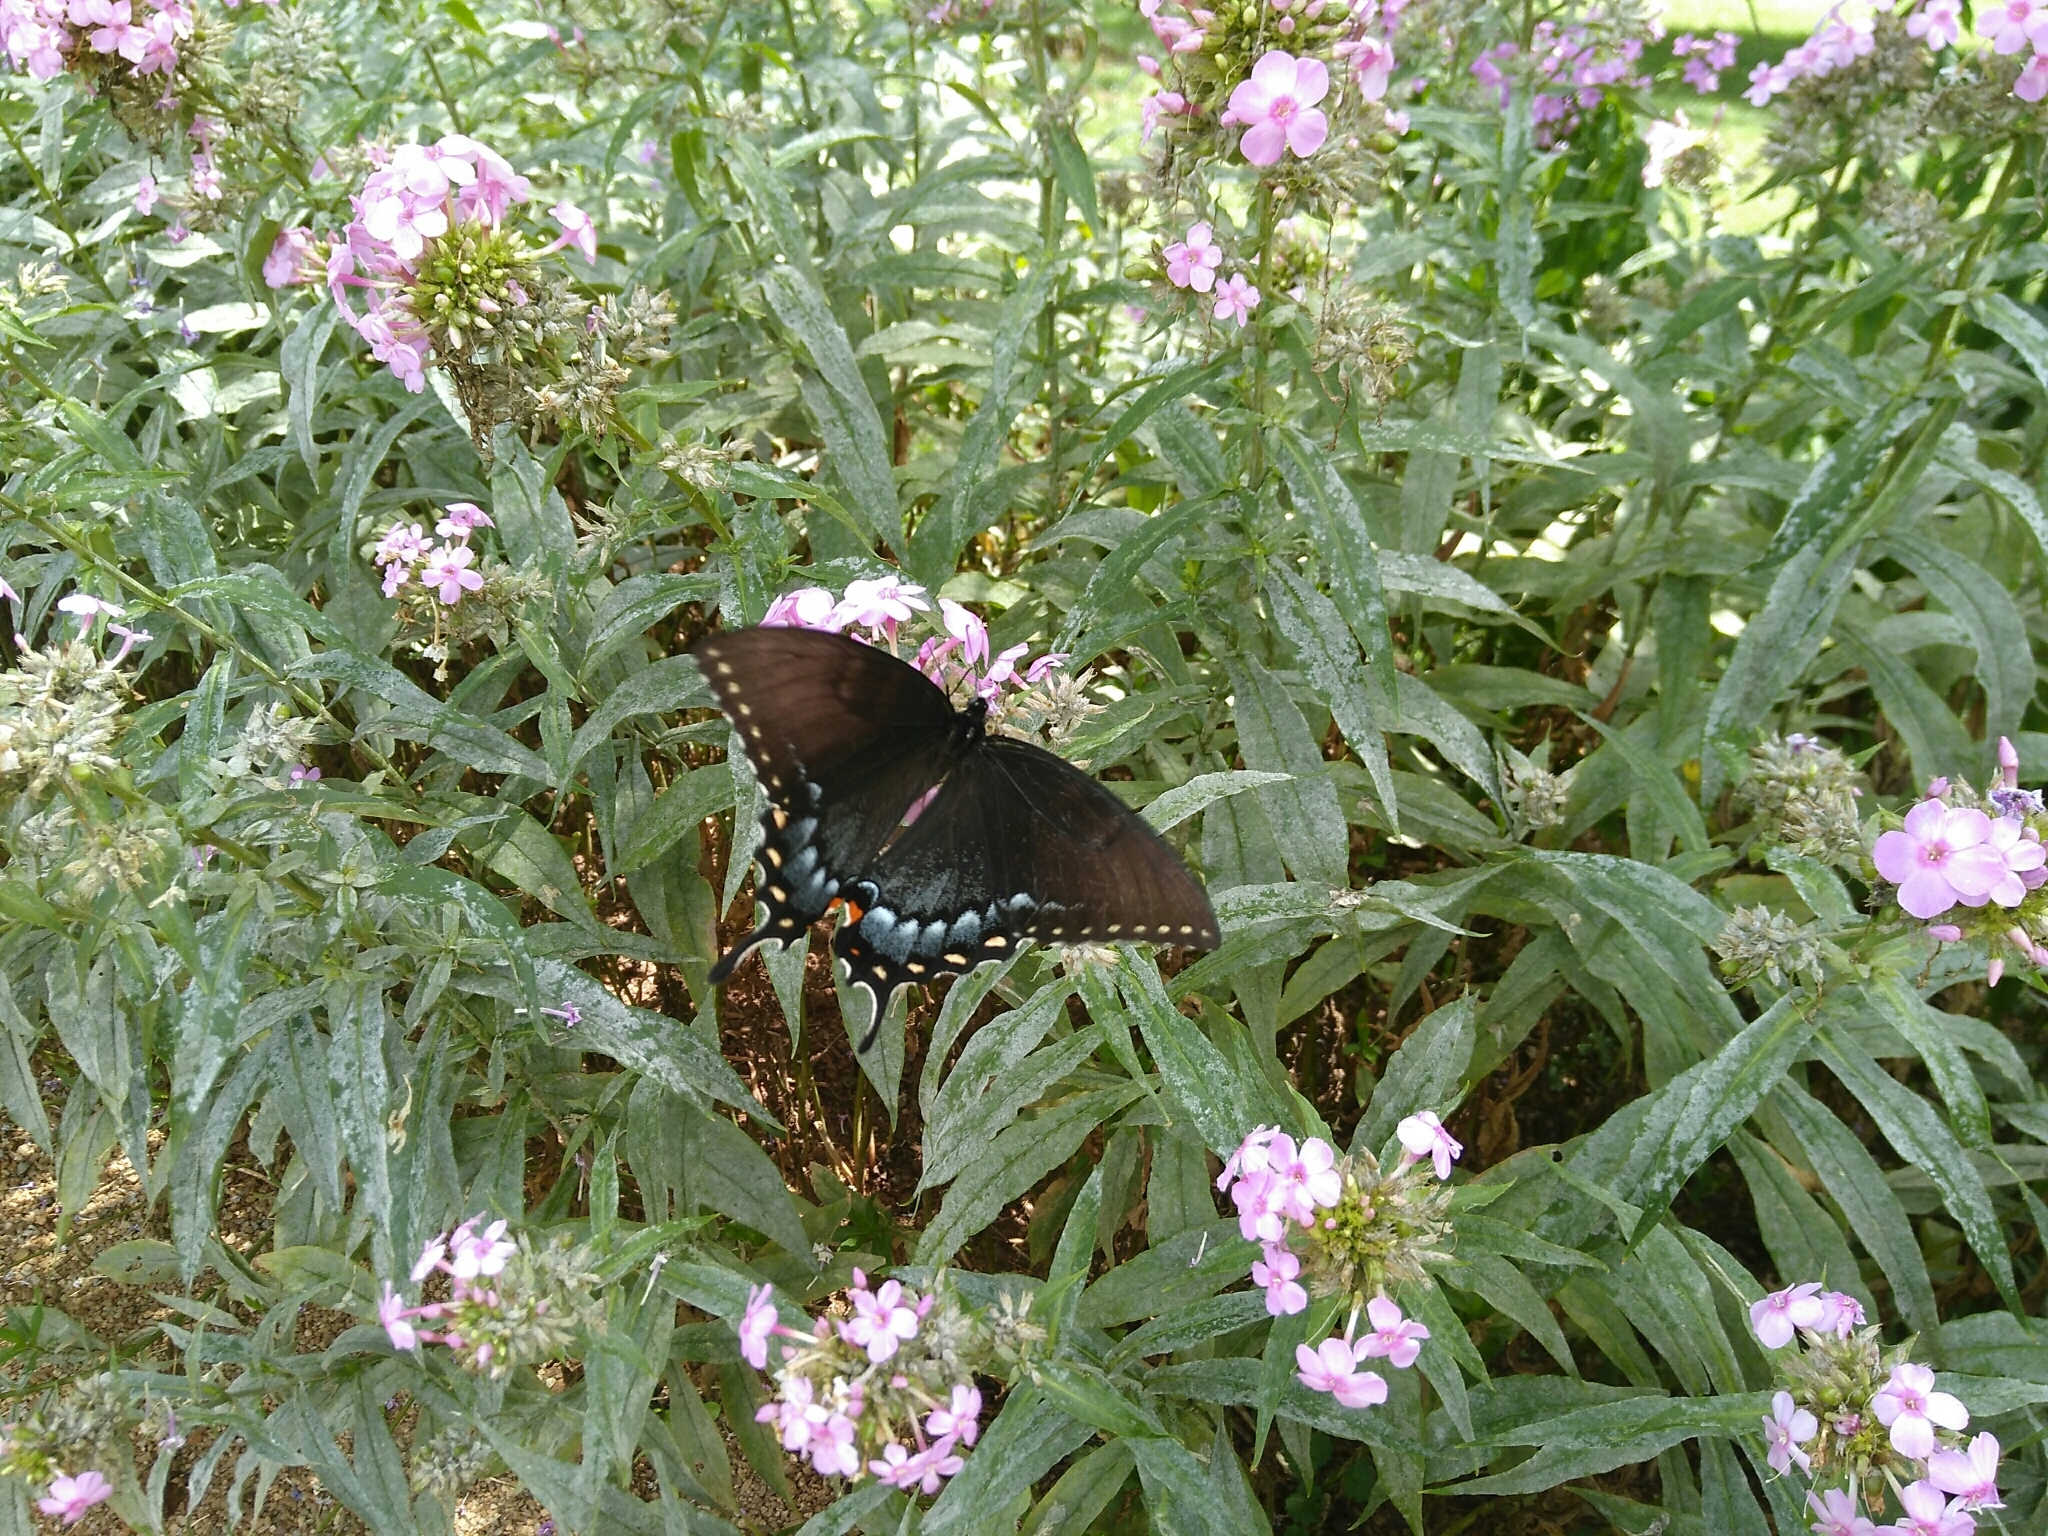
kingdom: Animalia
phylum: Arthropoda
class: Insecta
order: Lepidoptera
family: Papilionidae
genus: Papilio
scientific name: Papilio glaucus
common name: Tiger swallowtail
